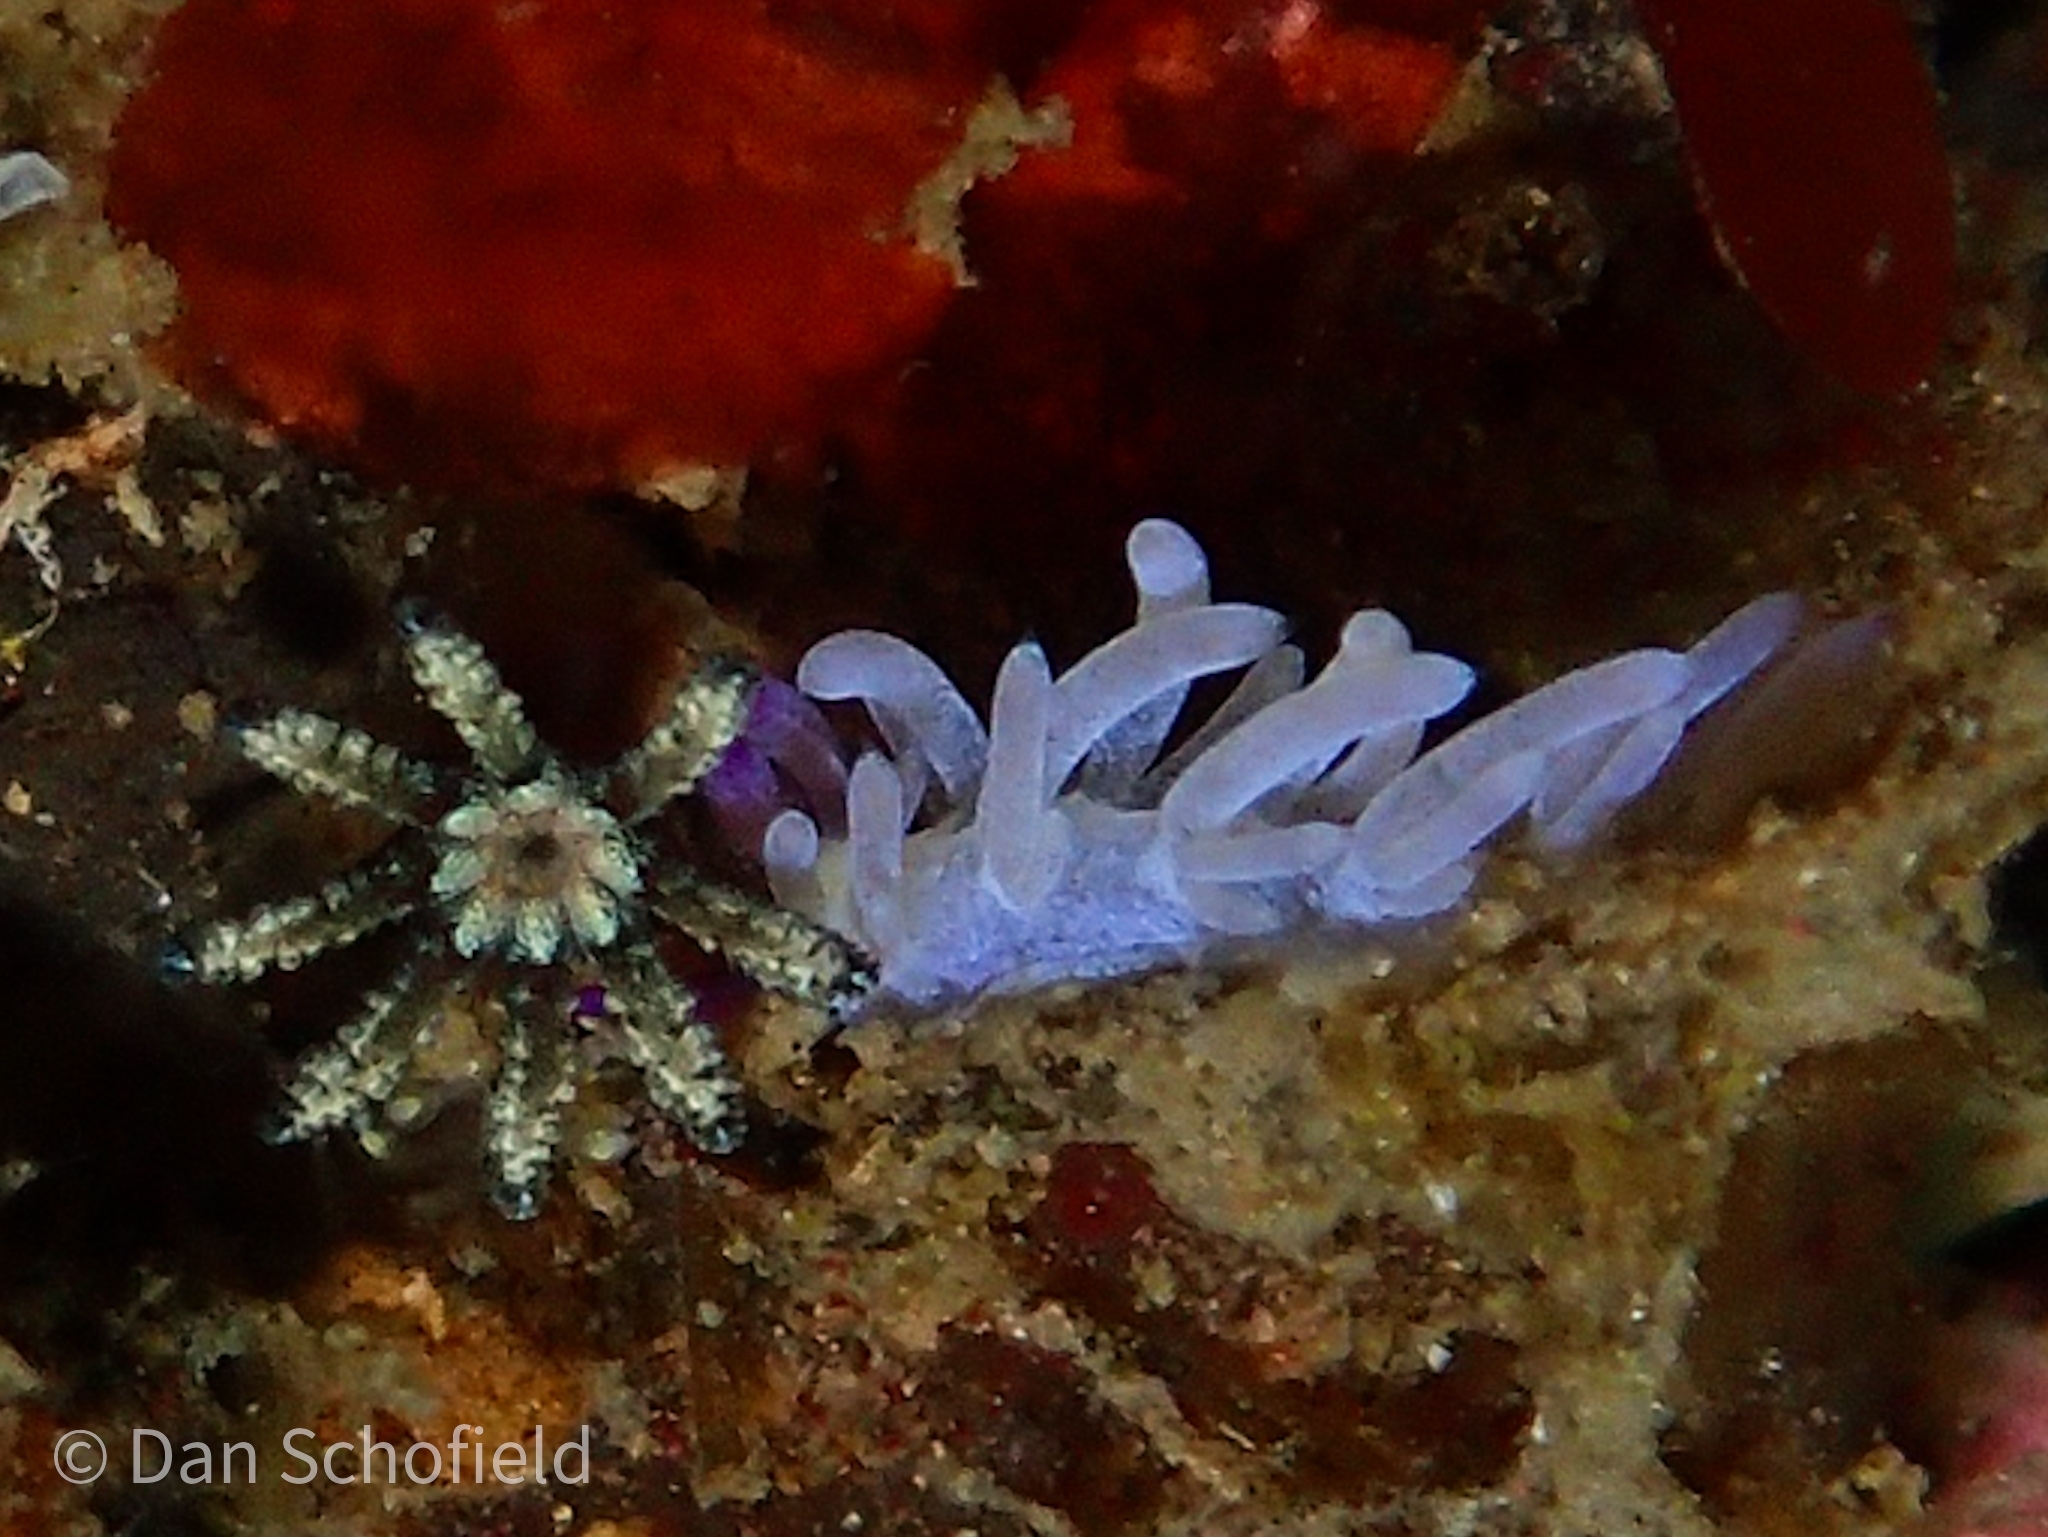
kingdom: Animalia
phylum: Mollusca
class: Gastropoda
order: Nudibranchia
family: Facelinidae
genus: Pteraeolidia
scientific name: Pteraeolidia semperi
